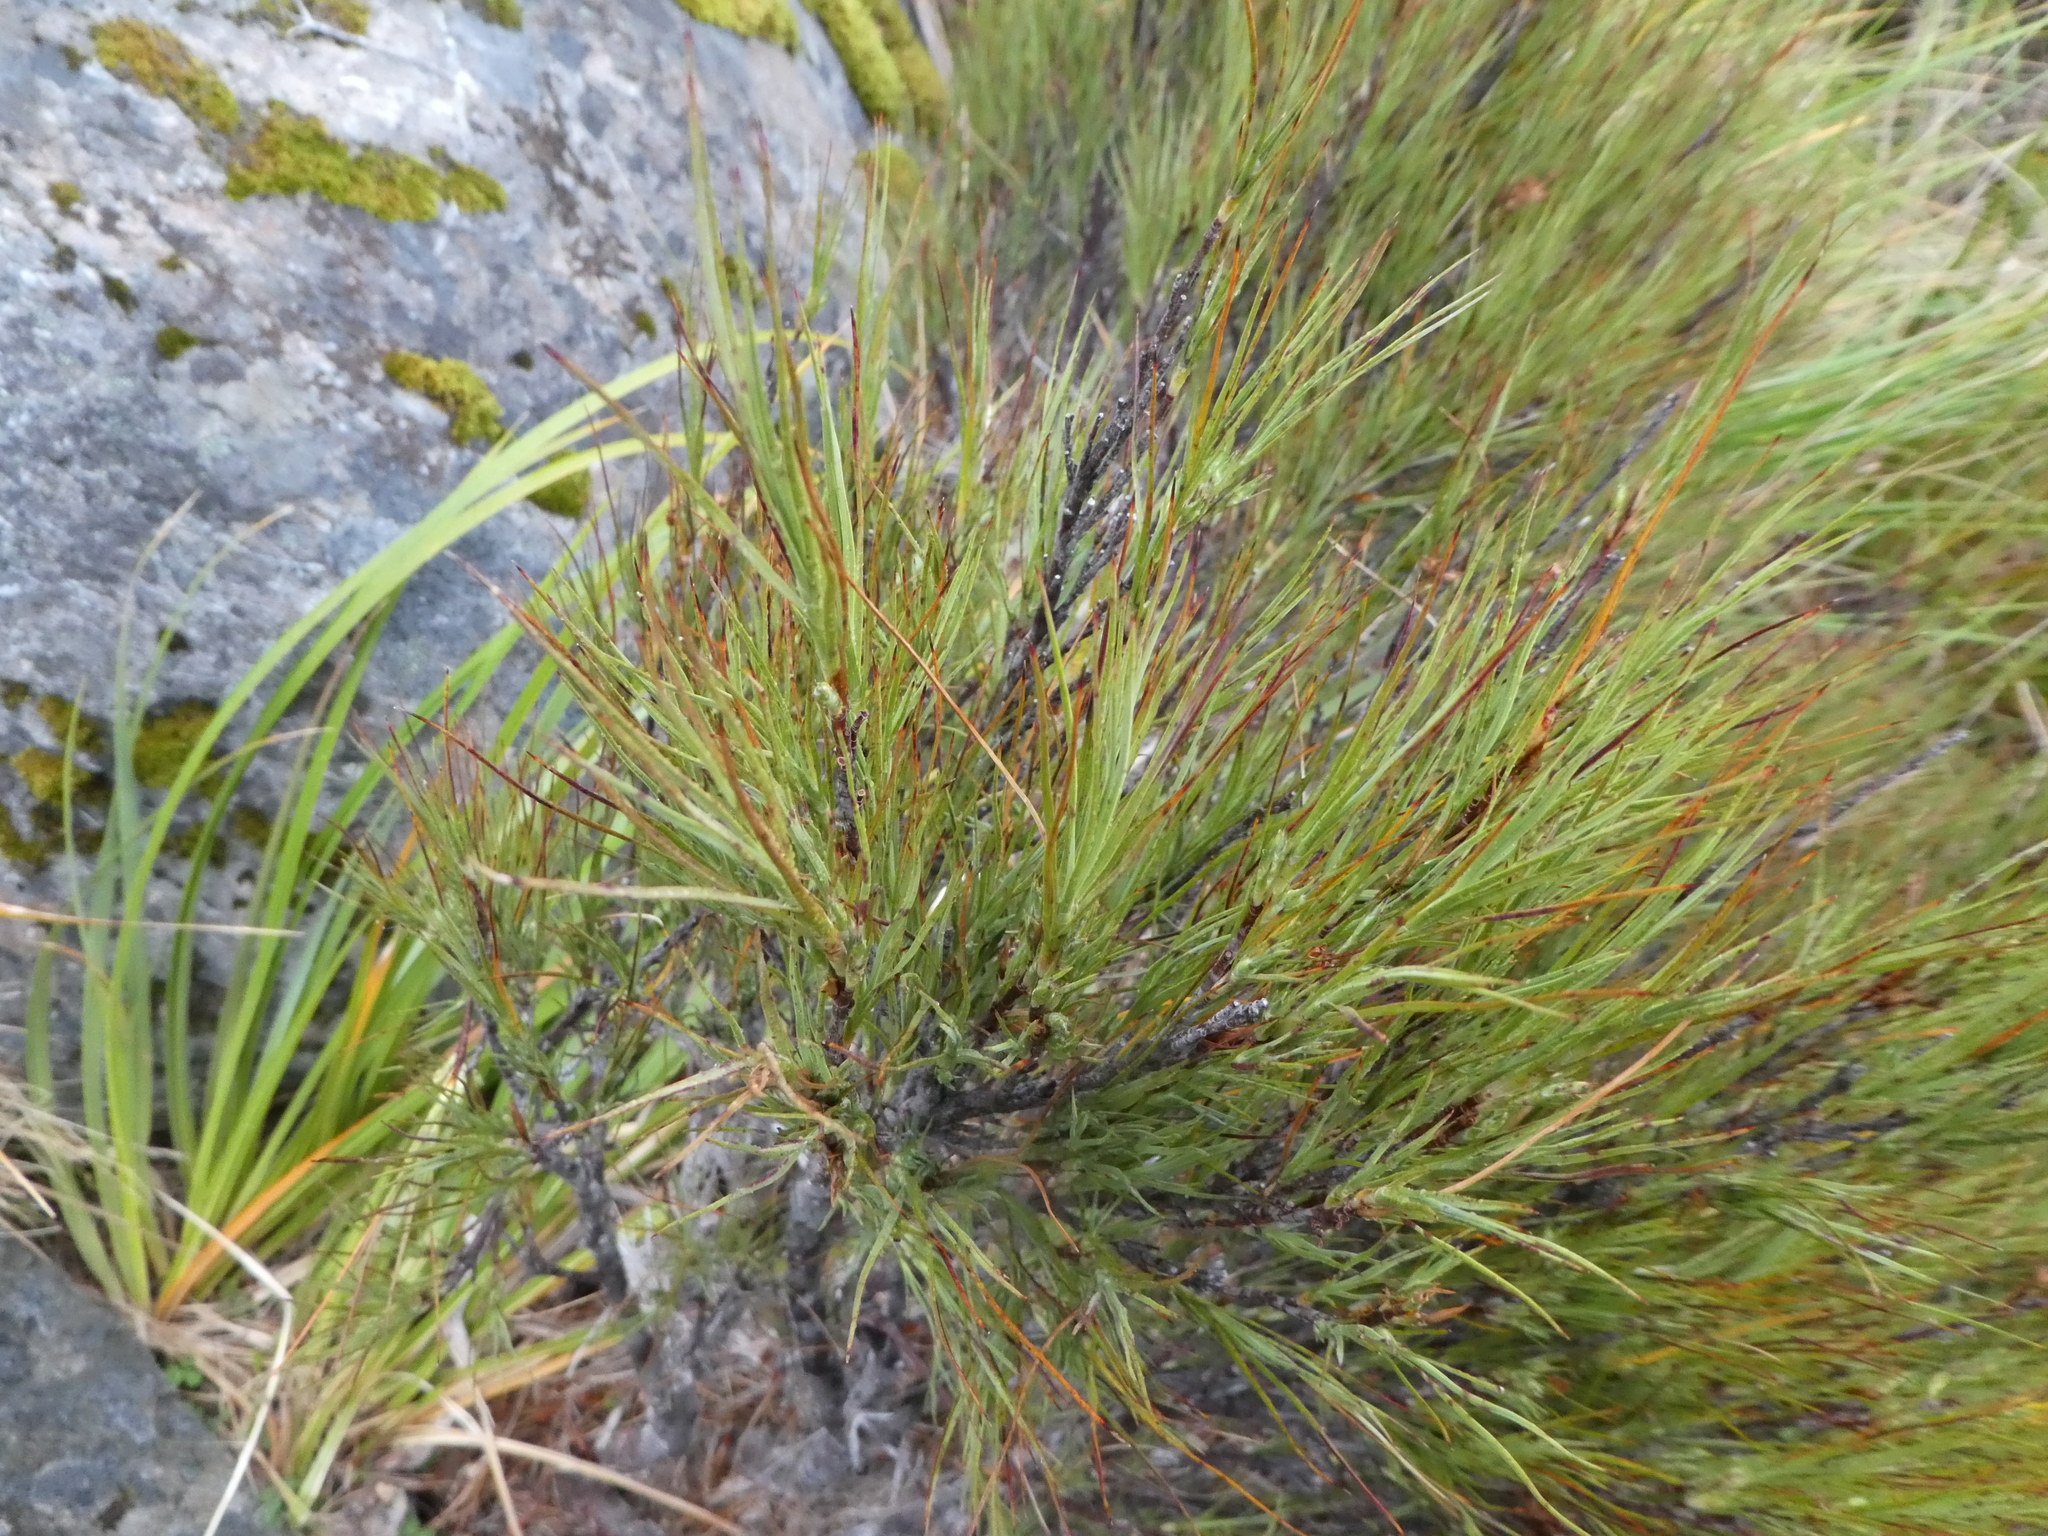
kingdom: Plantae
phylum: Tracheophyta
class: Magnoliopsida
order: Ericales
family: Ericaceae
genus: Dracophyllum
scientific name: Dracophyllum longifolium
